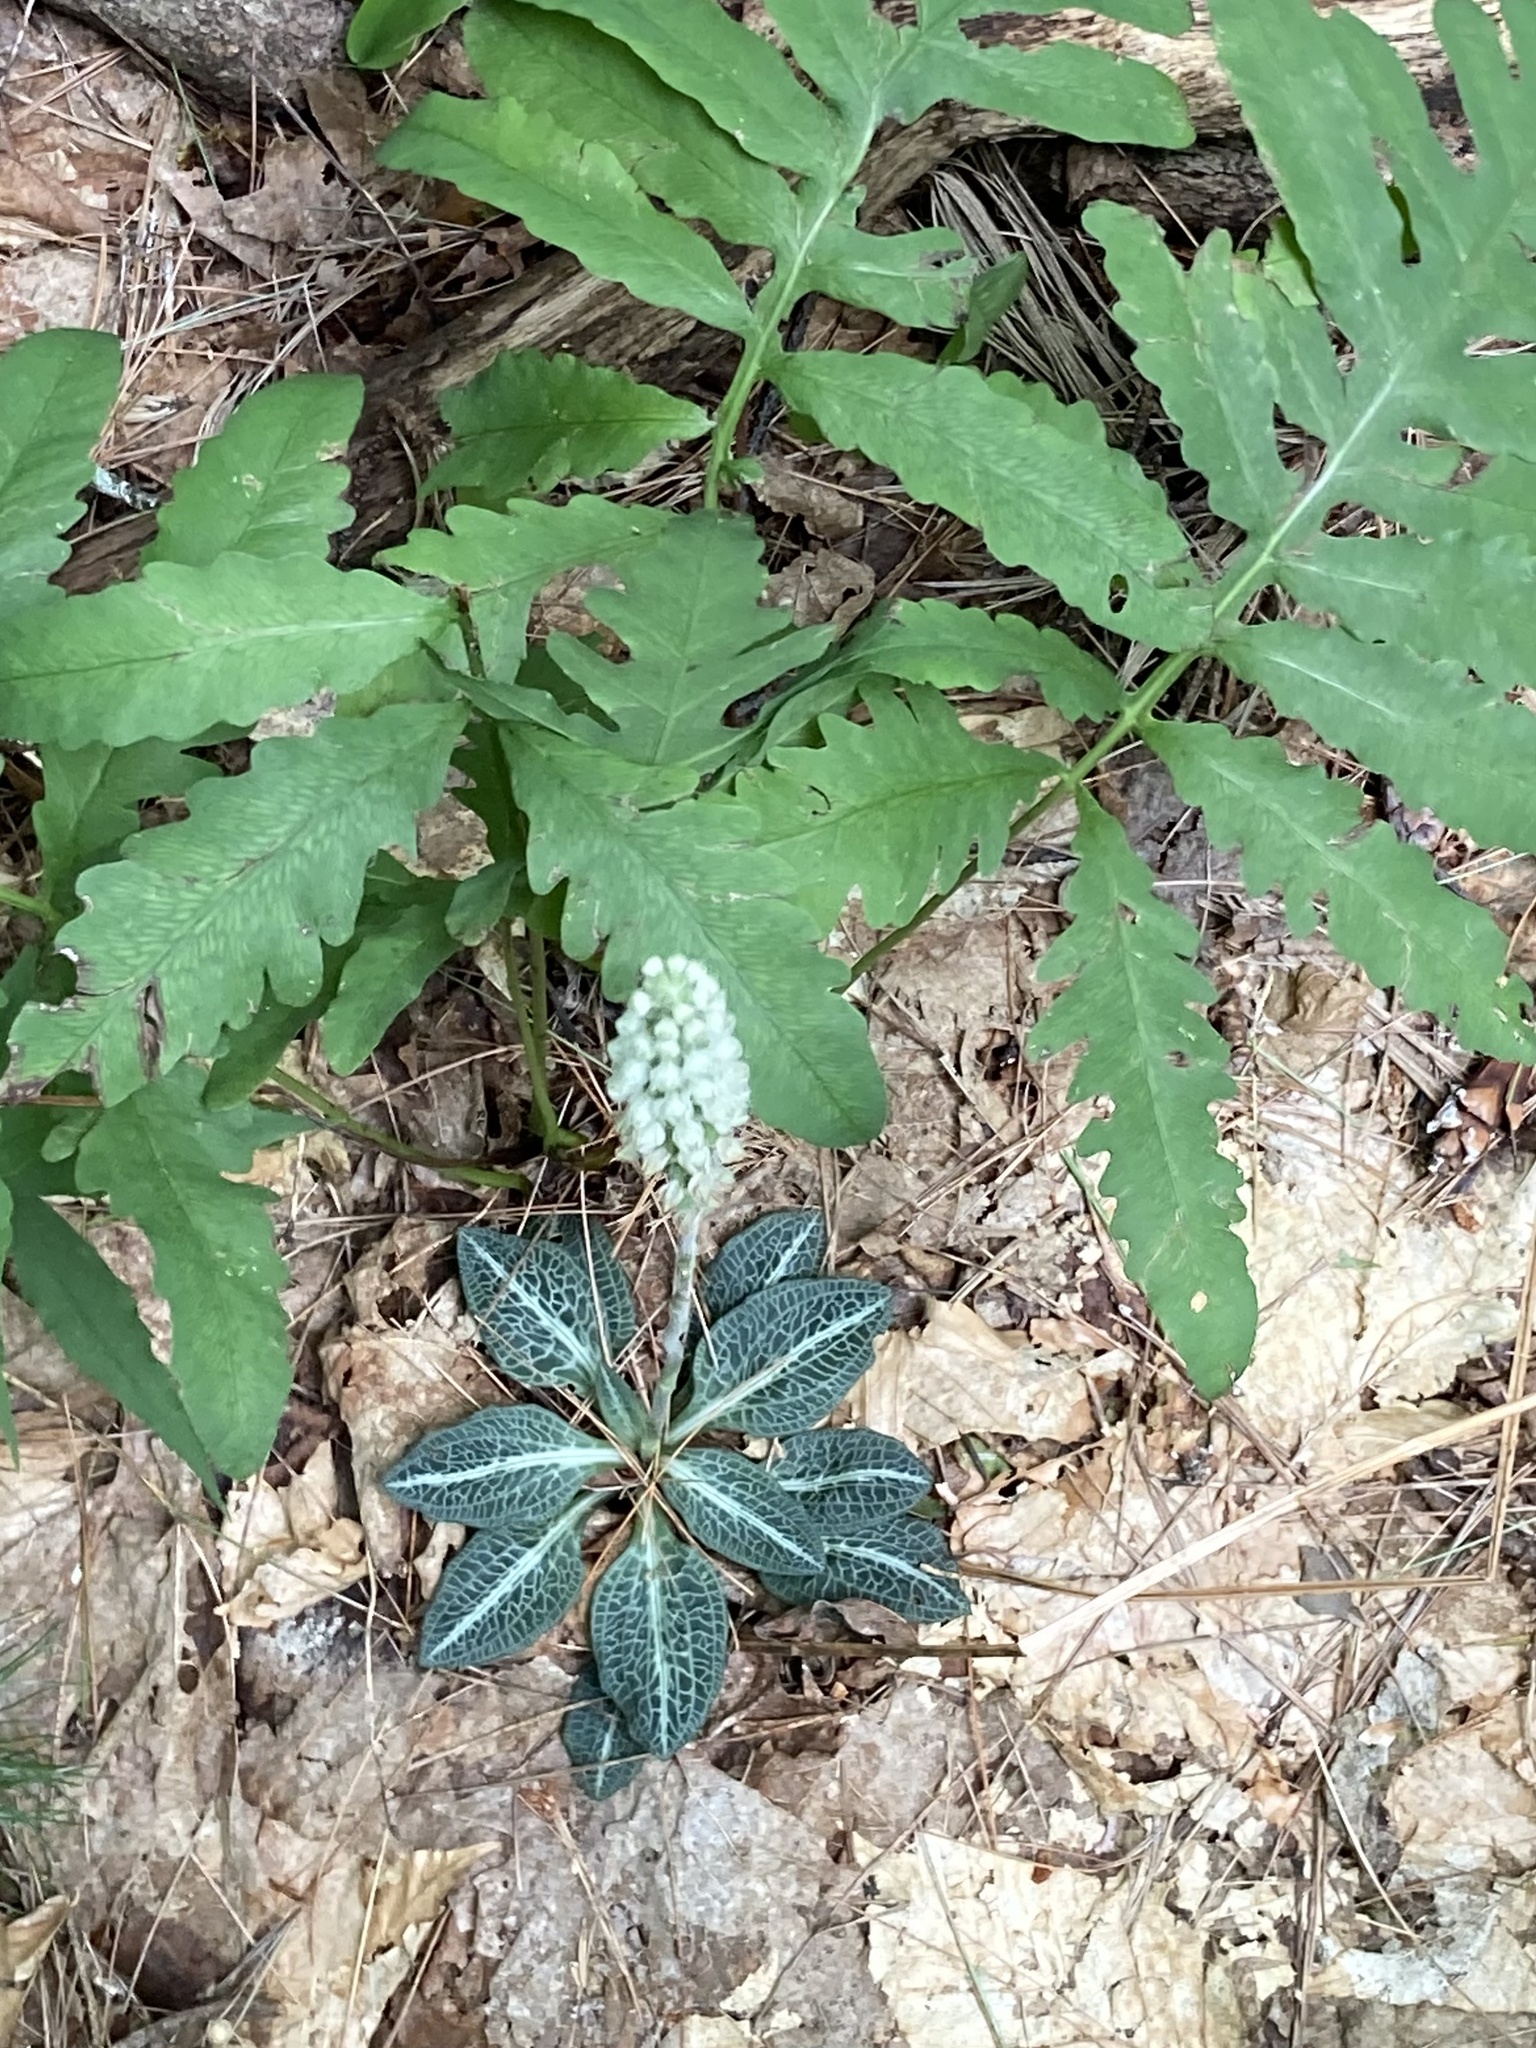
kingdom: Plantae
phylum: Tracheophyta
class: Liliopsida
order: Asparagales
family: Orchidaceae
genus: Goodyera
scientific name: Goodyera pubescens
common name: Downy rattlesnake-plantain
